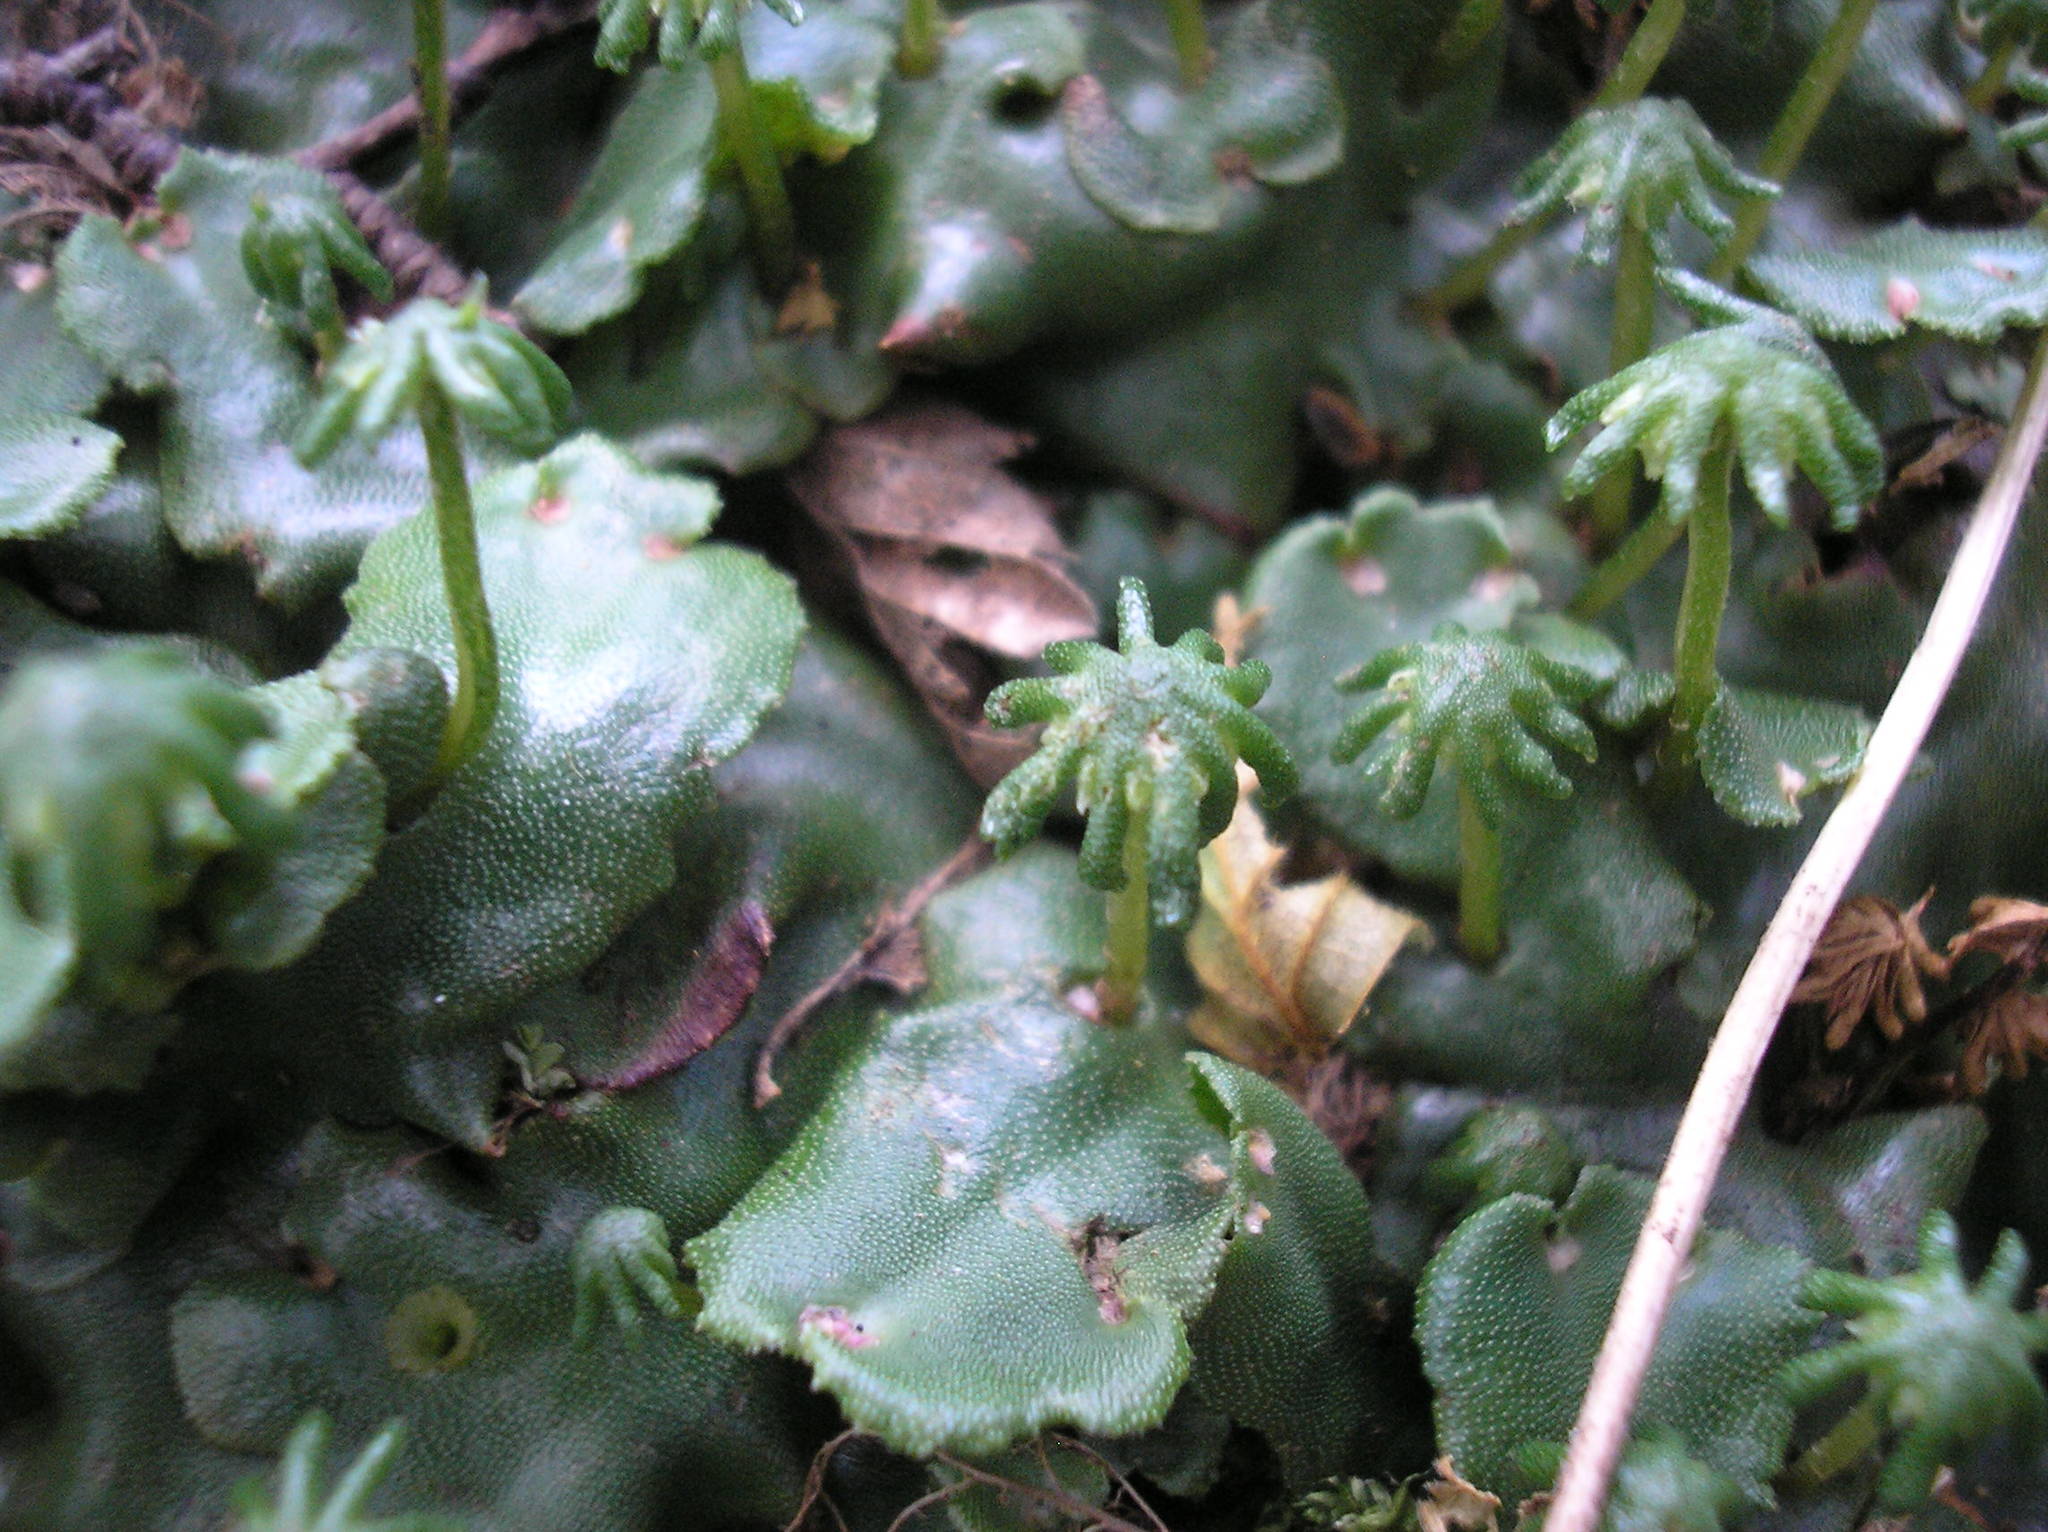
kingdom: Plantae
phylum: Marchantiophyta
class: Marchantiopsida
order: Marchantiales
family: Marchantiaceae
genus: Marchantia
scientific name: Marchantia polymorpha
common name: Common liverwort
